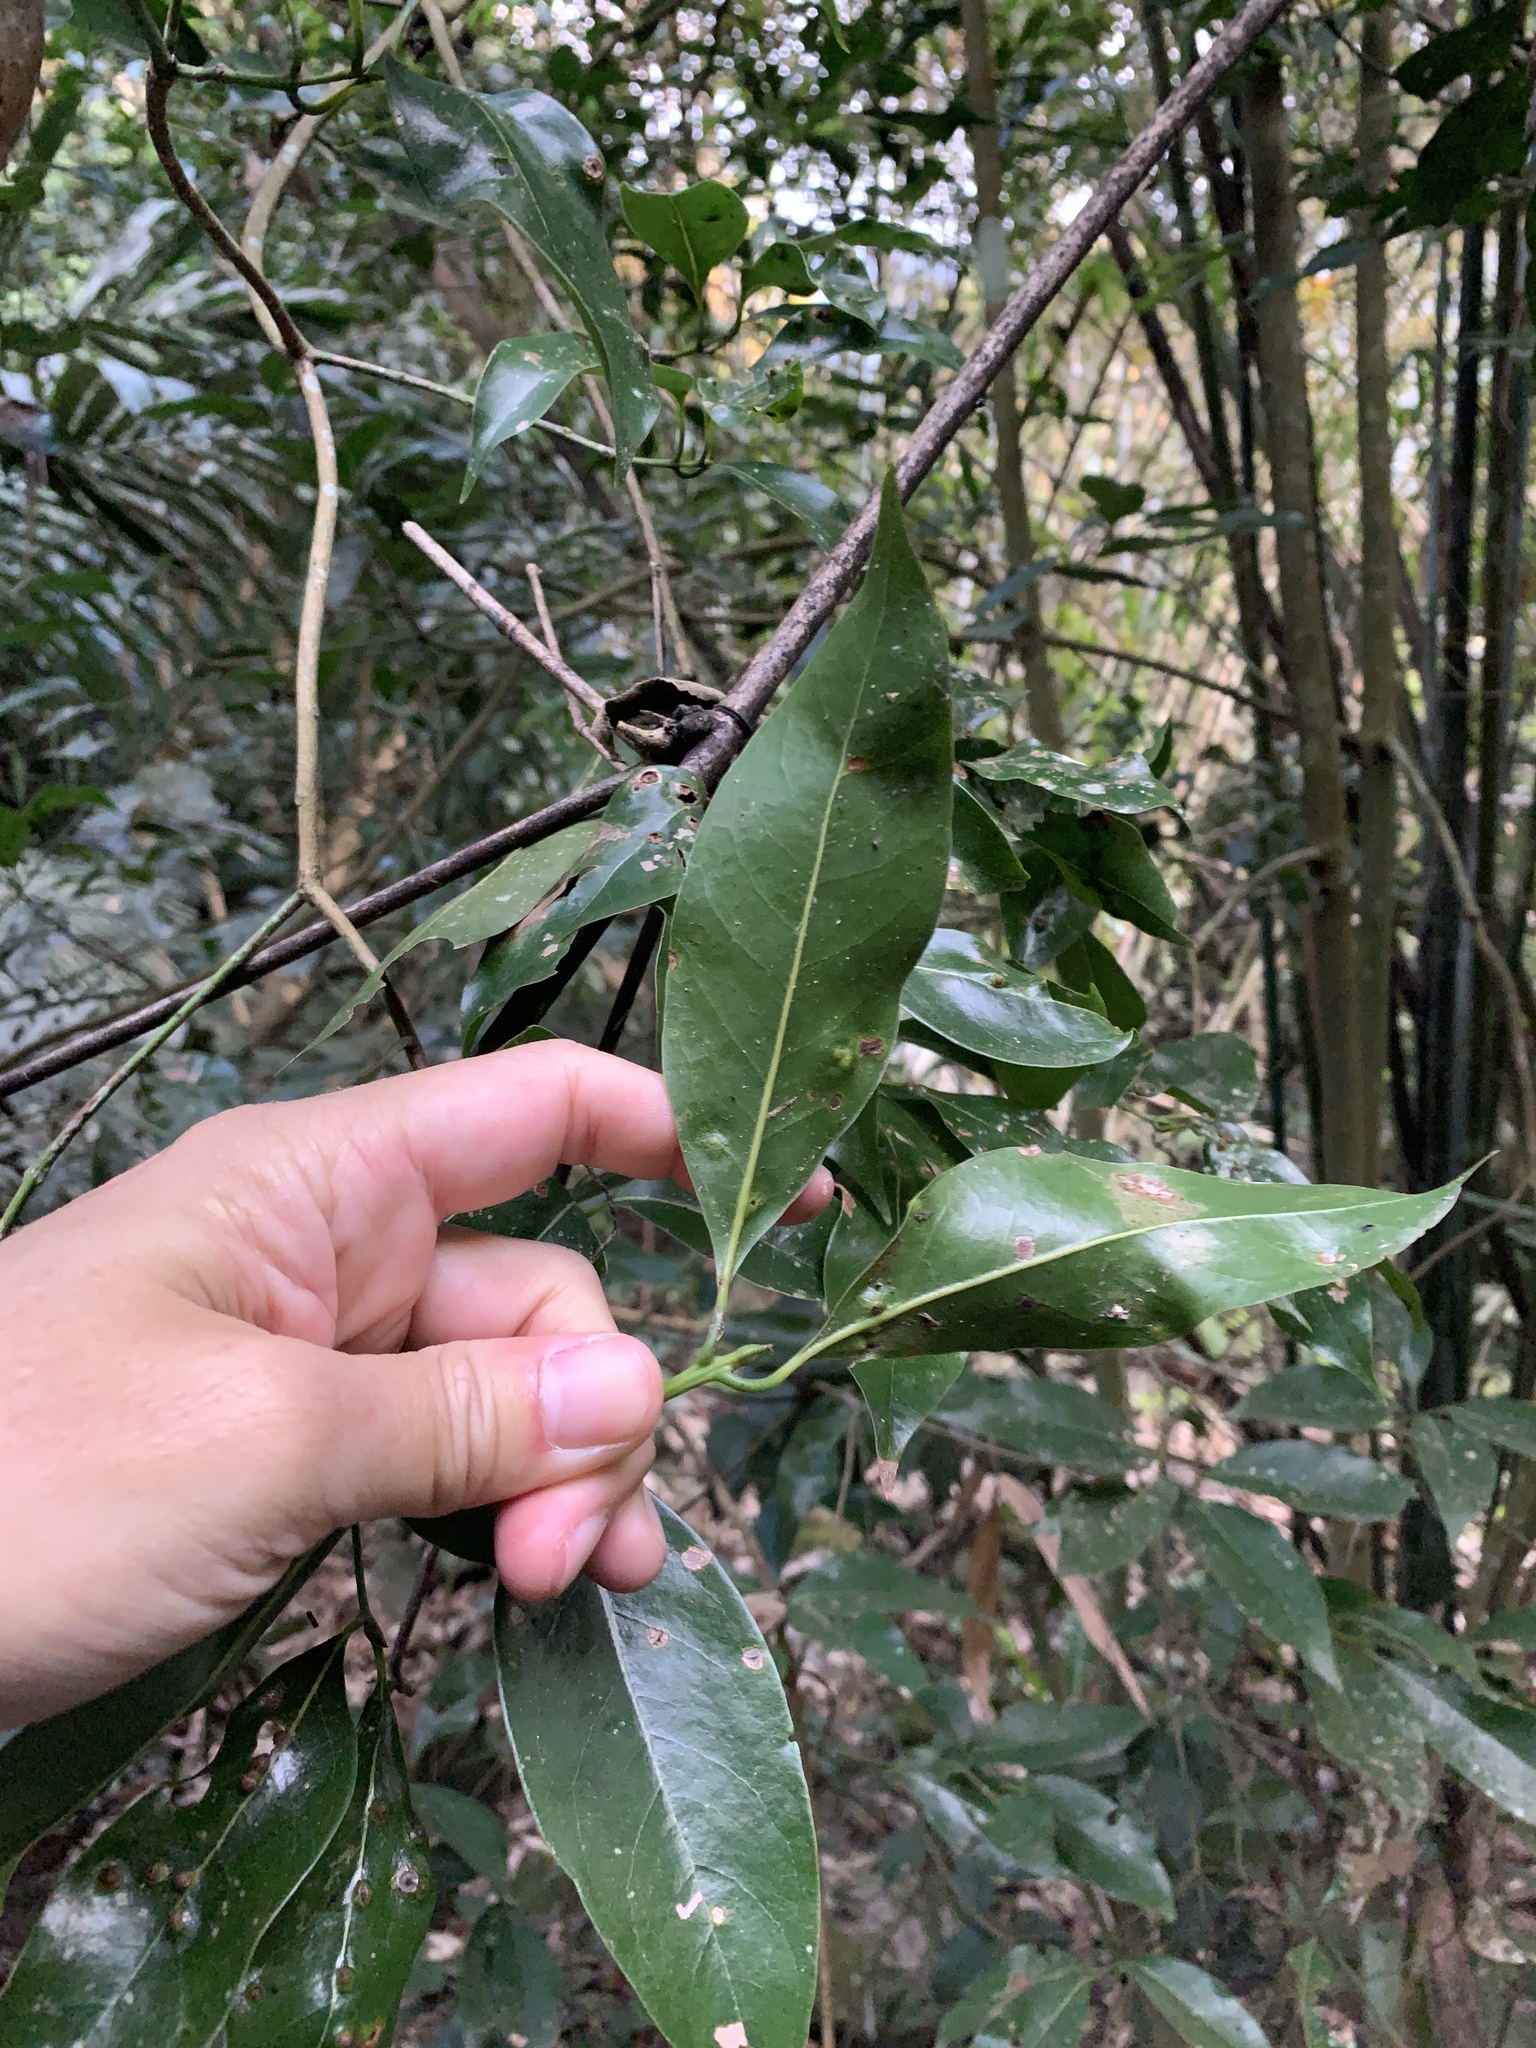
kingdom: Plantae
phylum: Tracheophyta
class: Magnoliopsida
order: Laurales
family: Lauraceae
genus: Beilschmiedia
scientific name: Beilschmiedia erythrophloia
